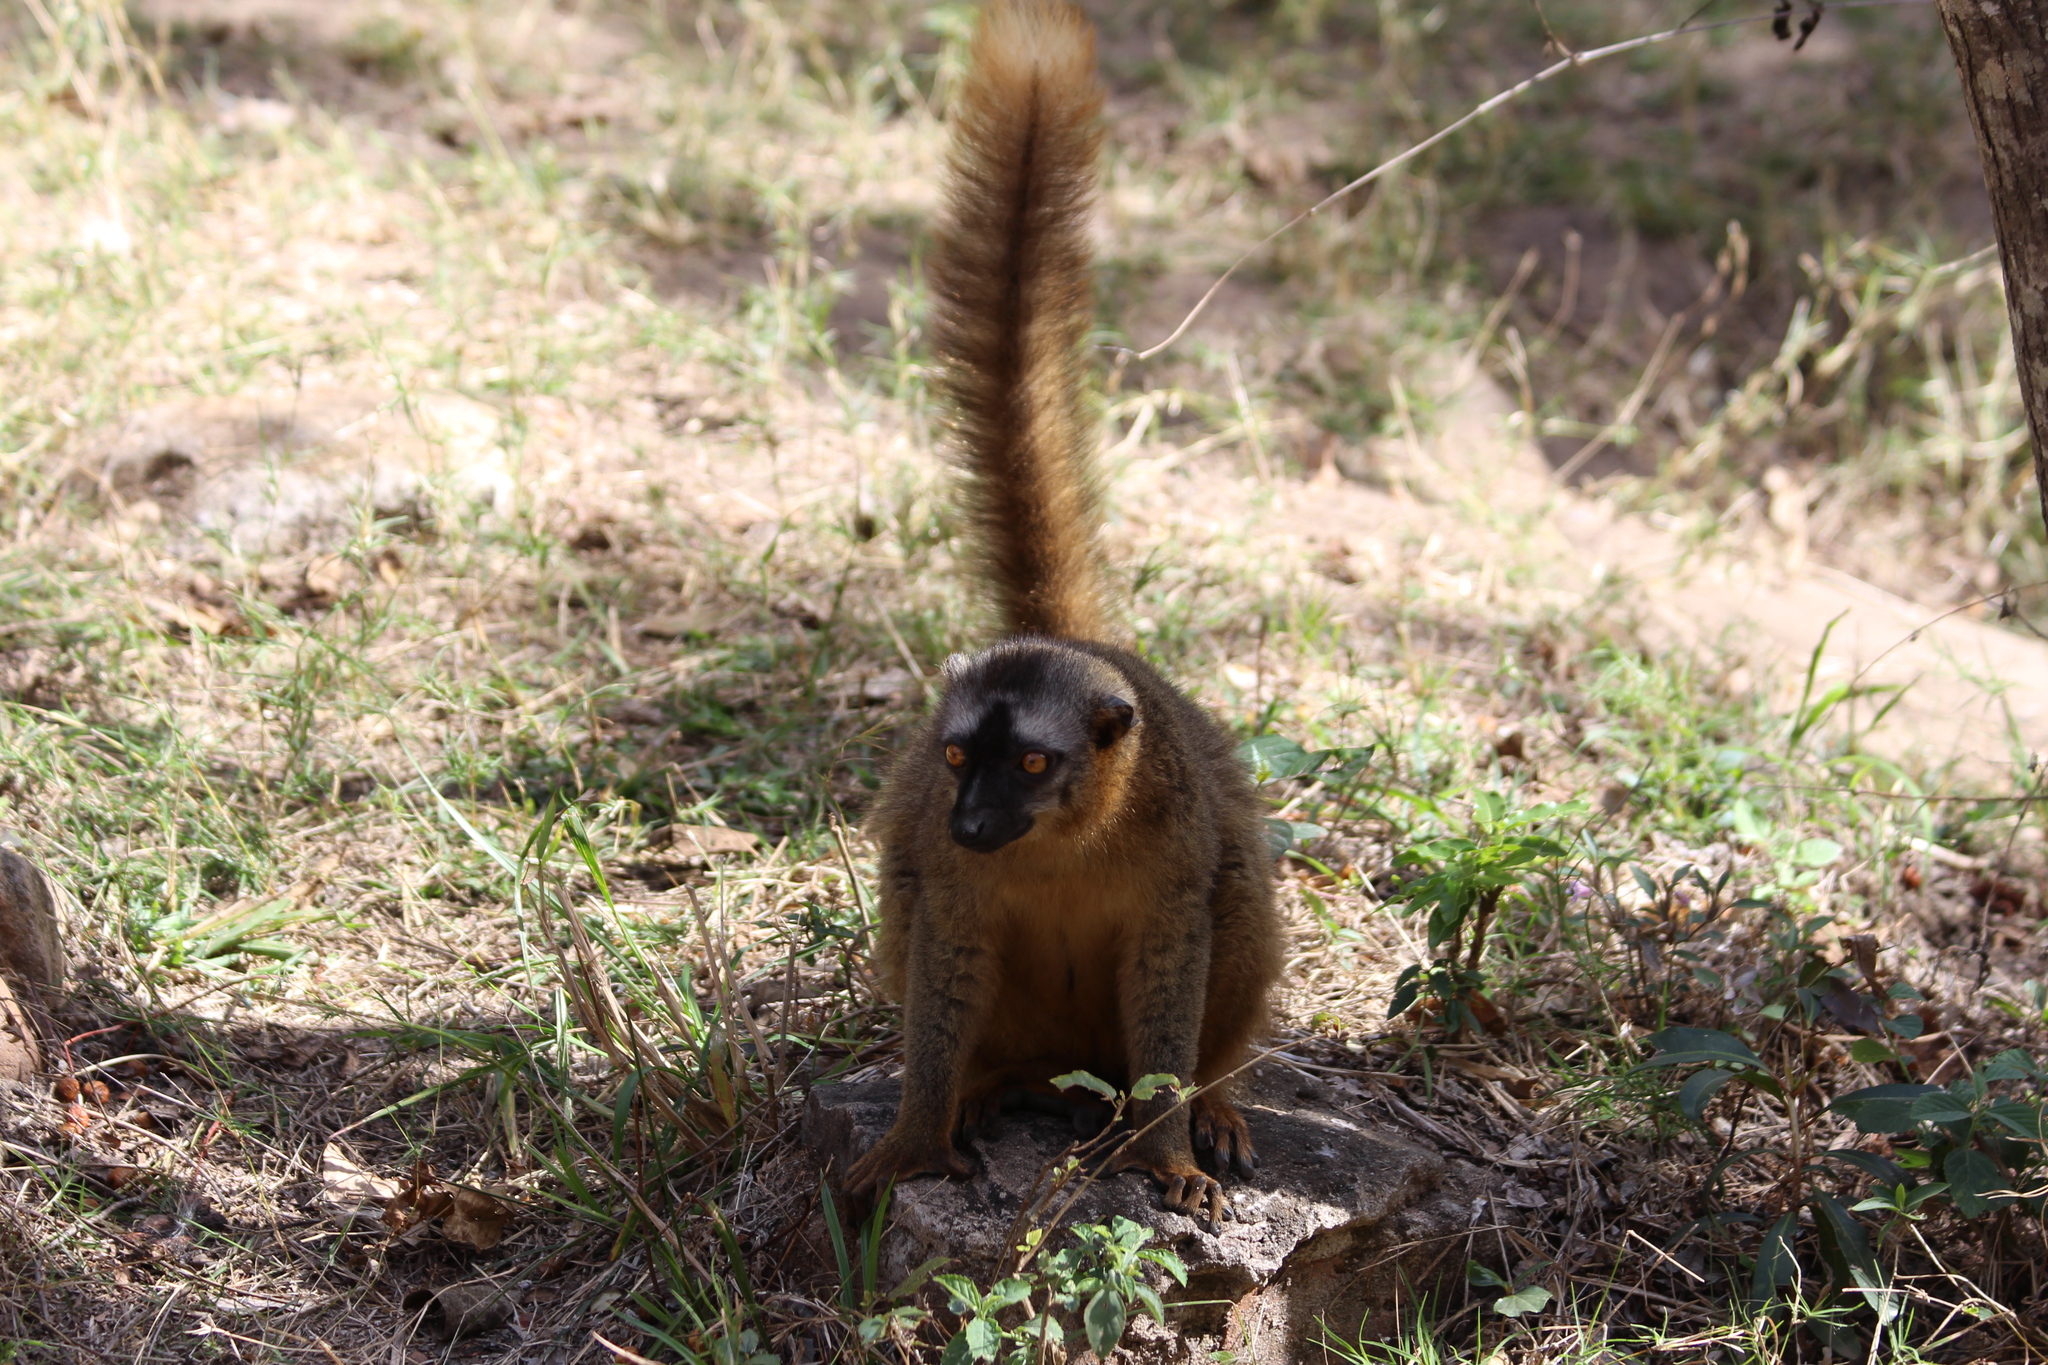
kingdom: Animalia
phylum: Chordata
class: Mammalia
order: Primates
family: Lemuridae
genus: Eulemur
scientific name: Eulemur rufifrons
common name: Red-fronted brown lemur
